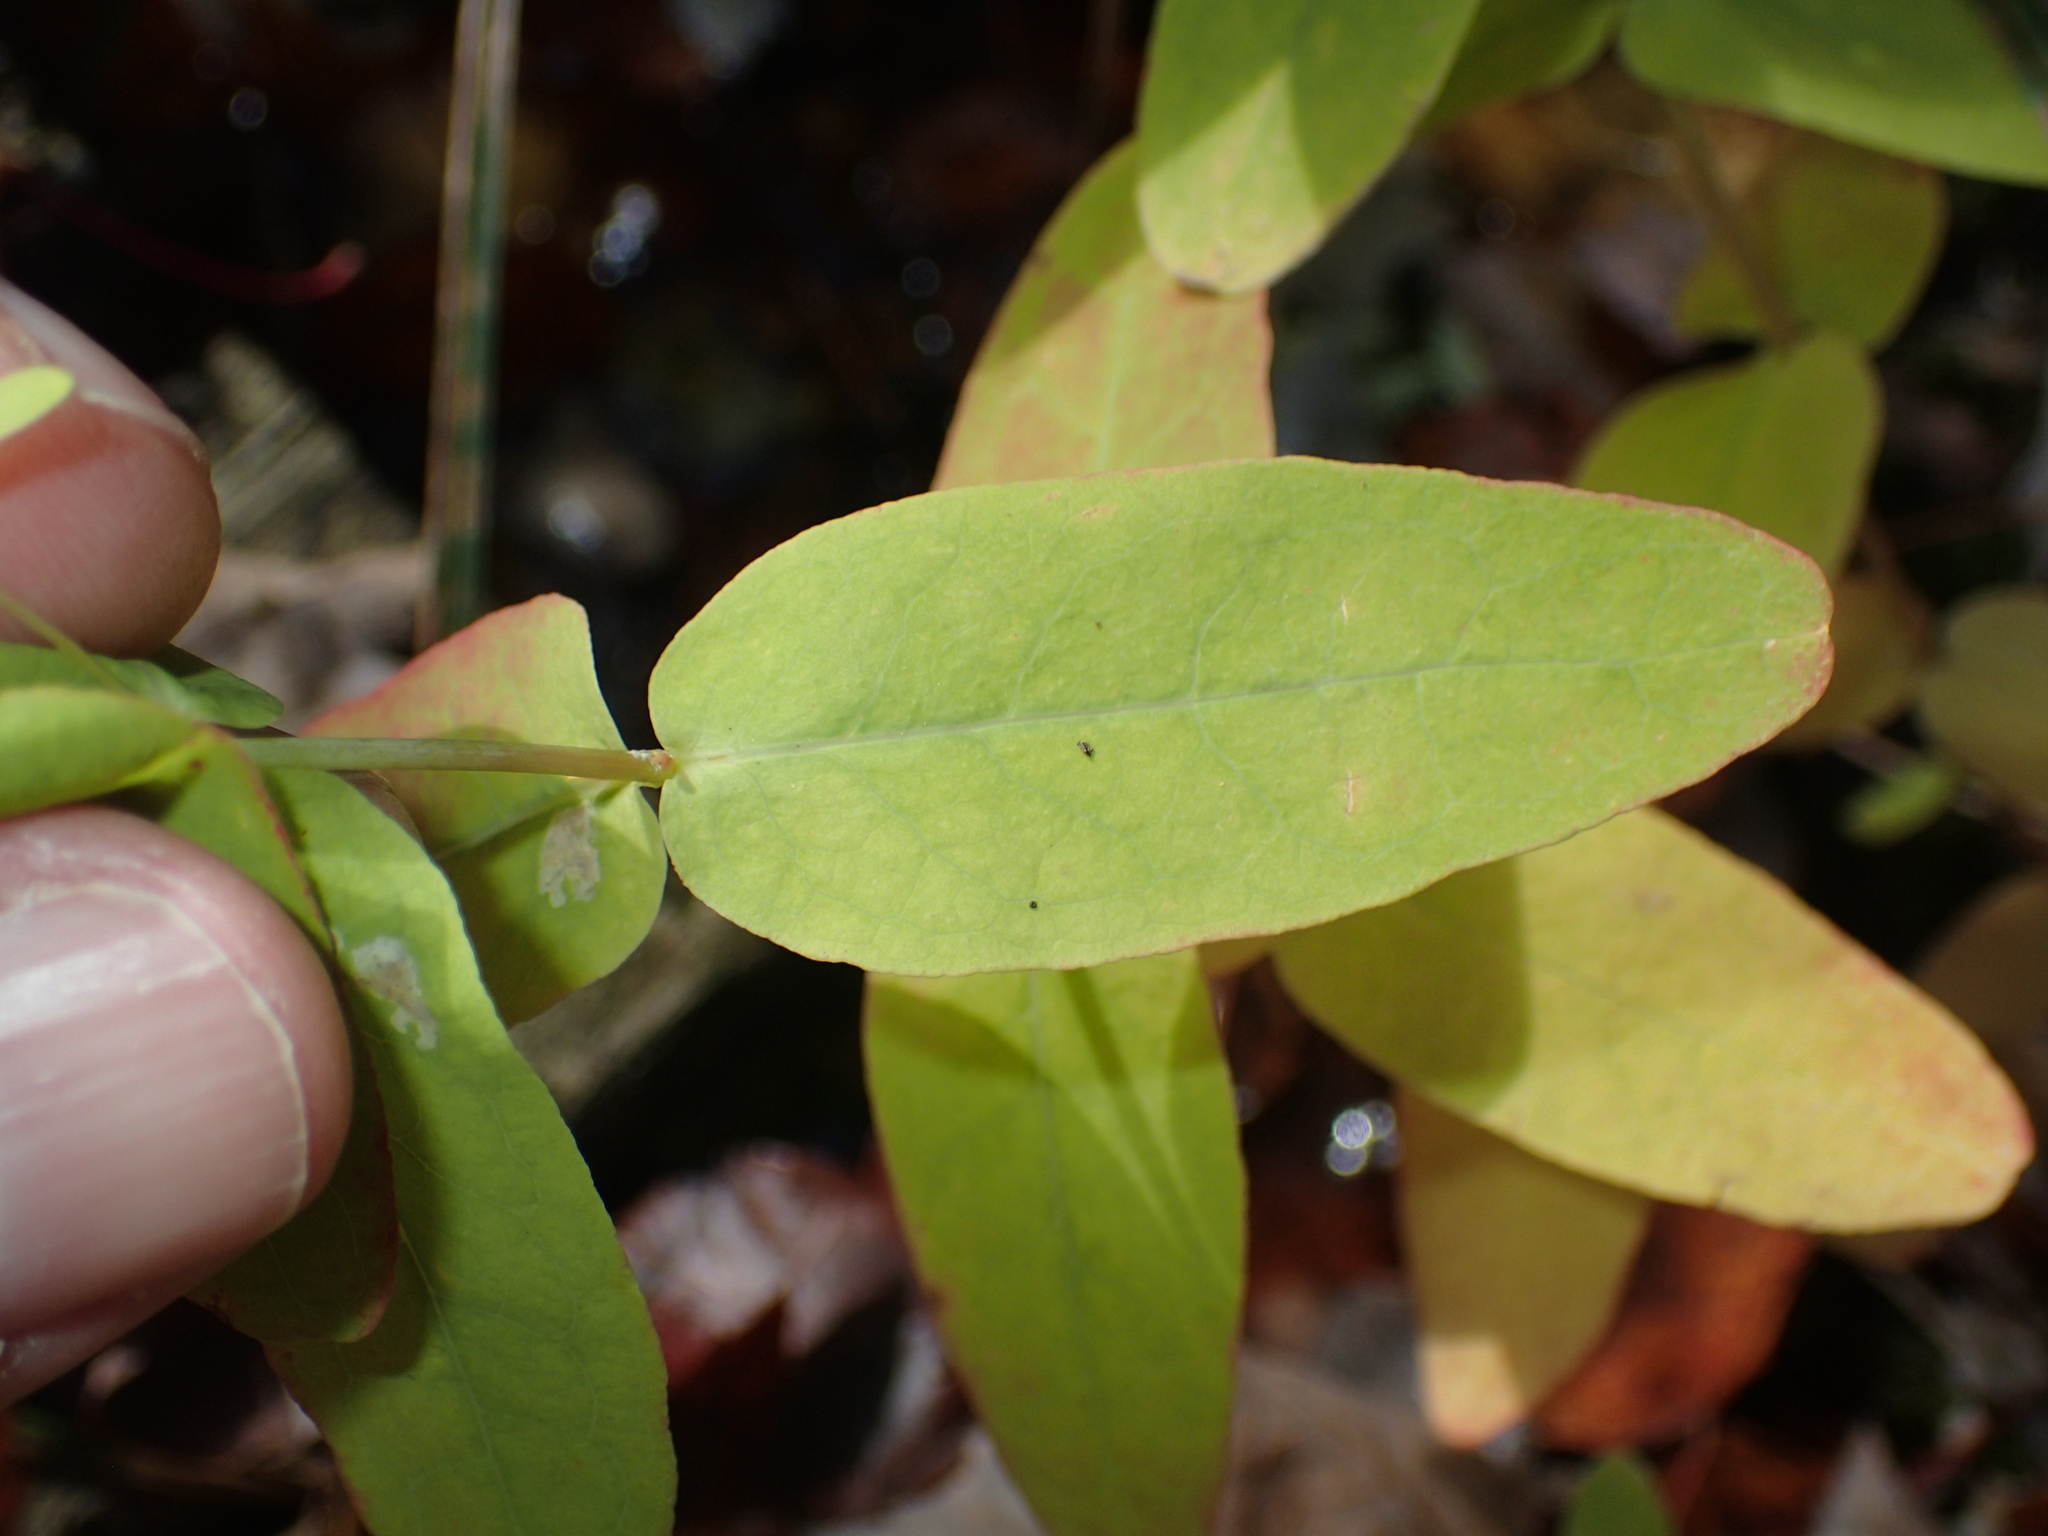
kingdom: Plantae
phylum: Tracheophyta
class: Magnoliopsida
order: Malpighiales
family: Hypericaceae
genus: Triadenum
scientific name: Triadenum virginicum
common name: Marsh st. john's-wort
